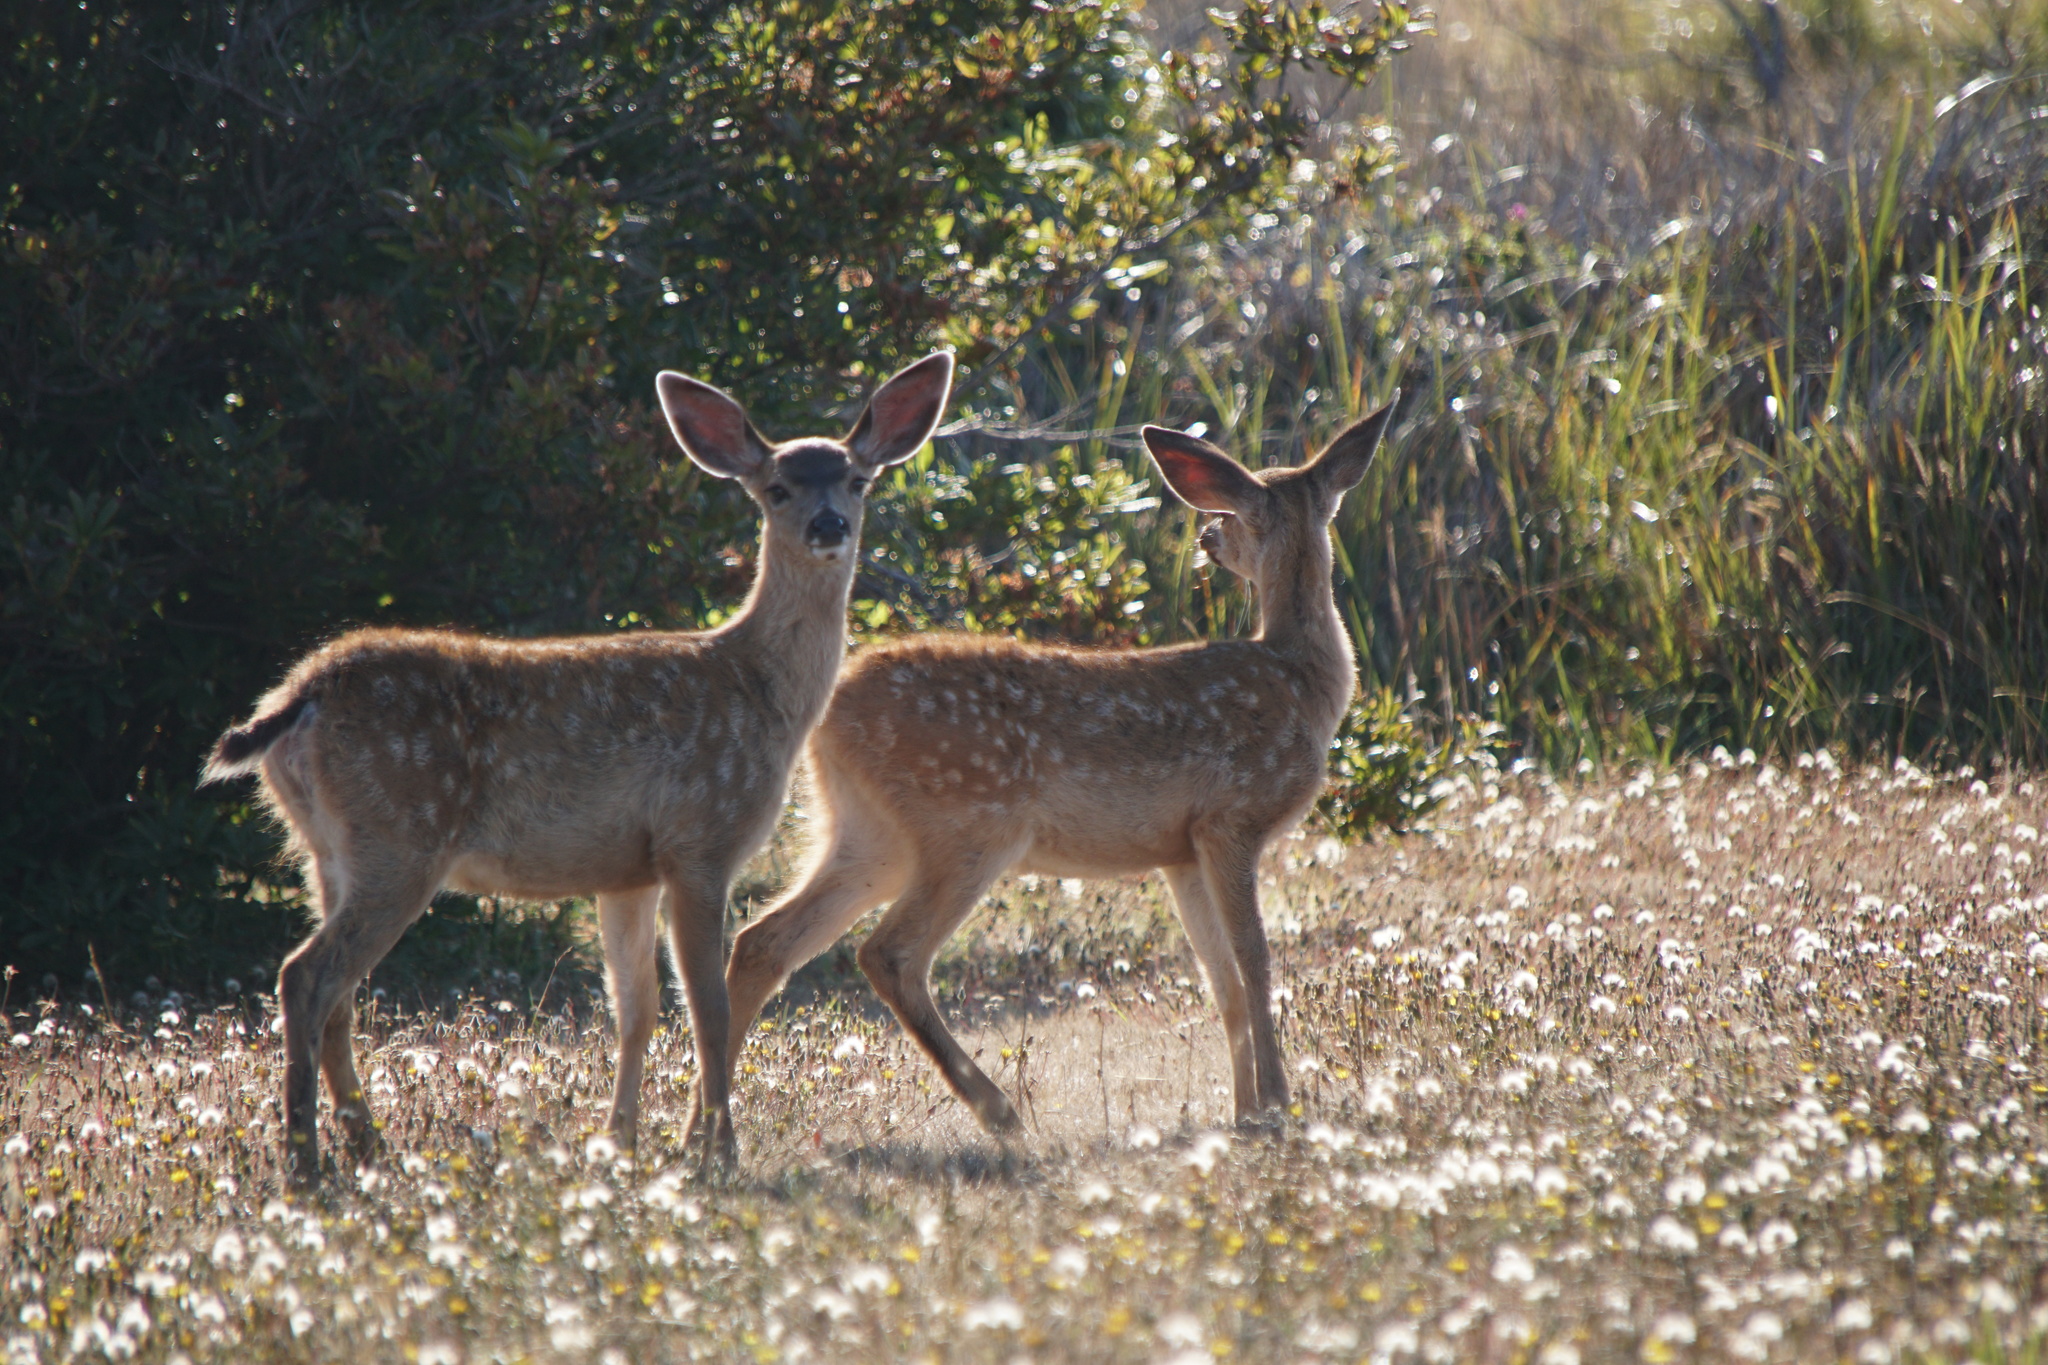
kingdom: Animalia
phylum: Chordata
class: Mammalia
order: Artiodactyla
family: Cervidae
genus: Odocoileus
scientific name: Odocoileus hemionus
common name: Mule deer
